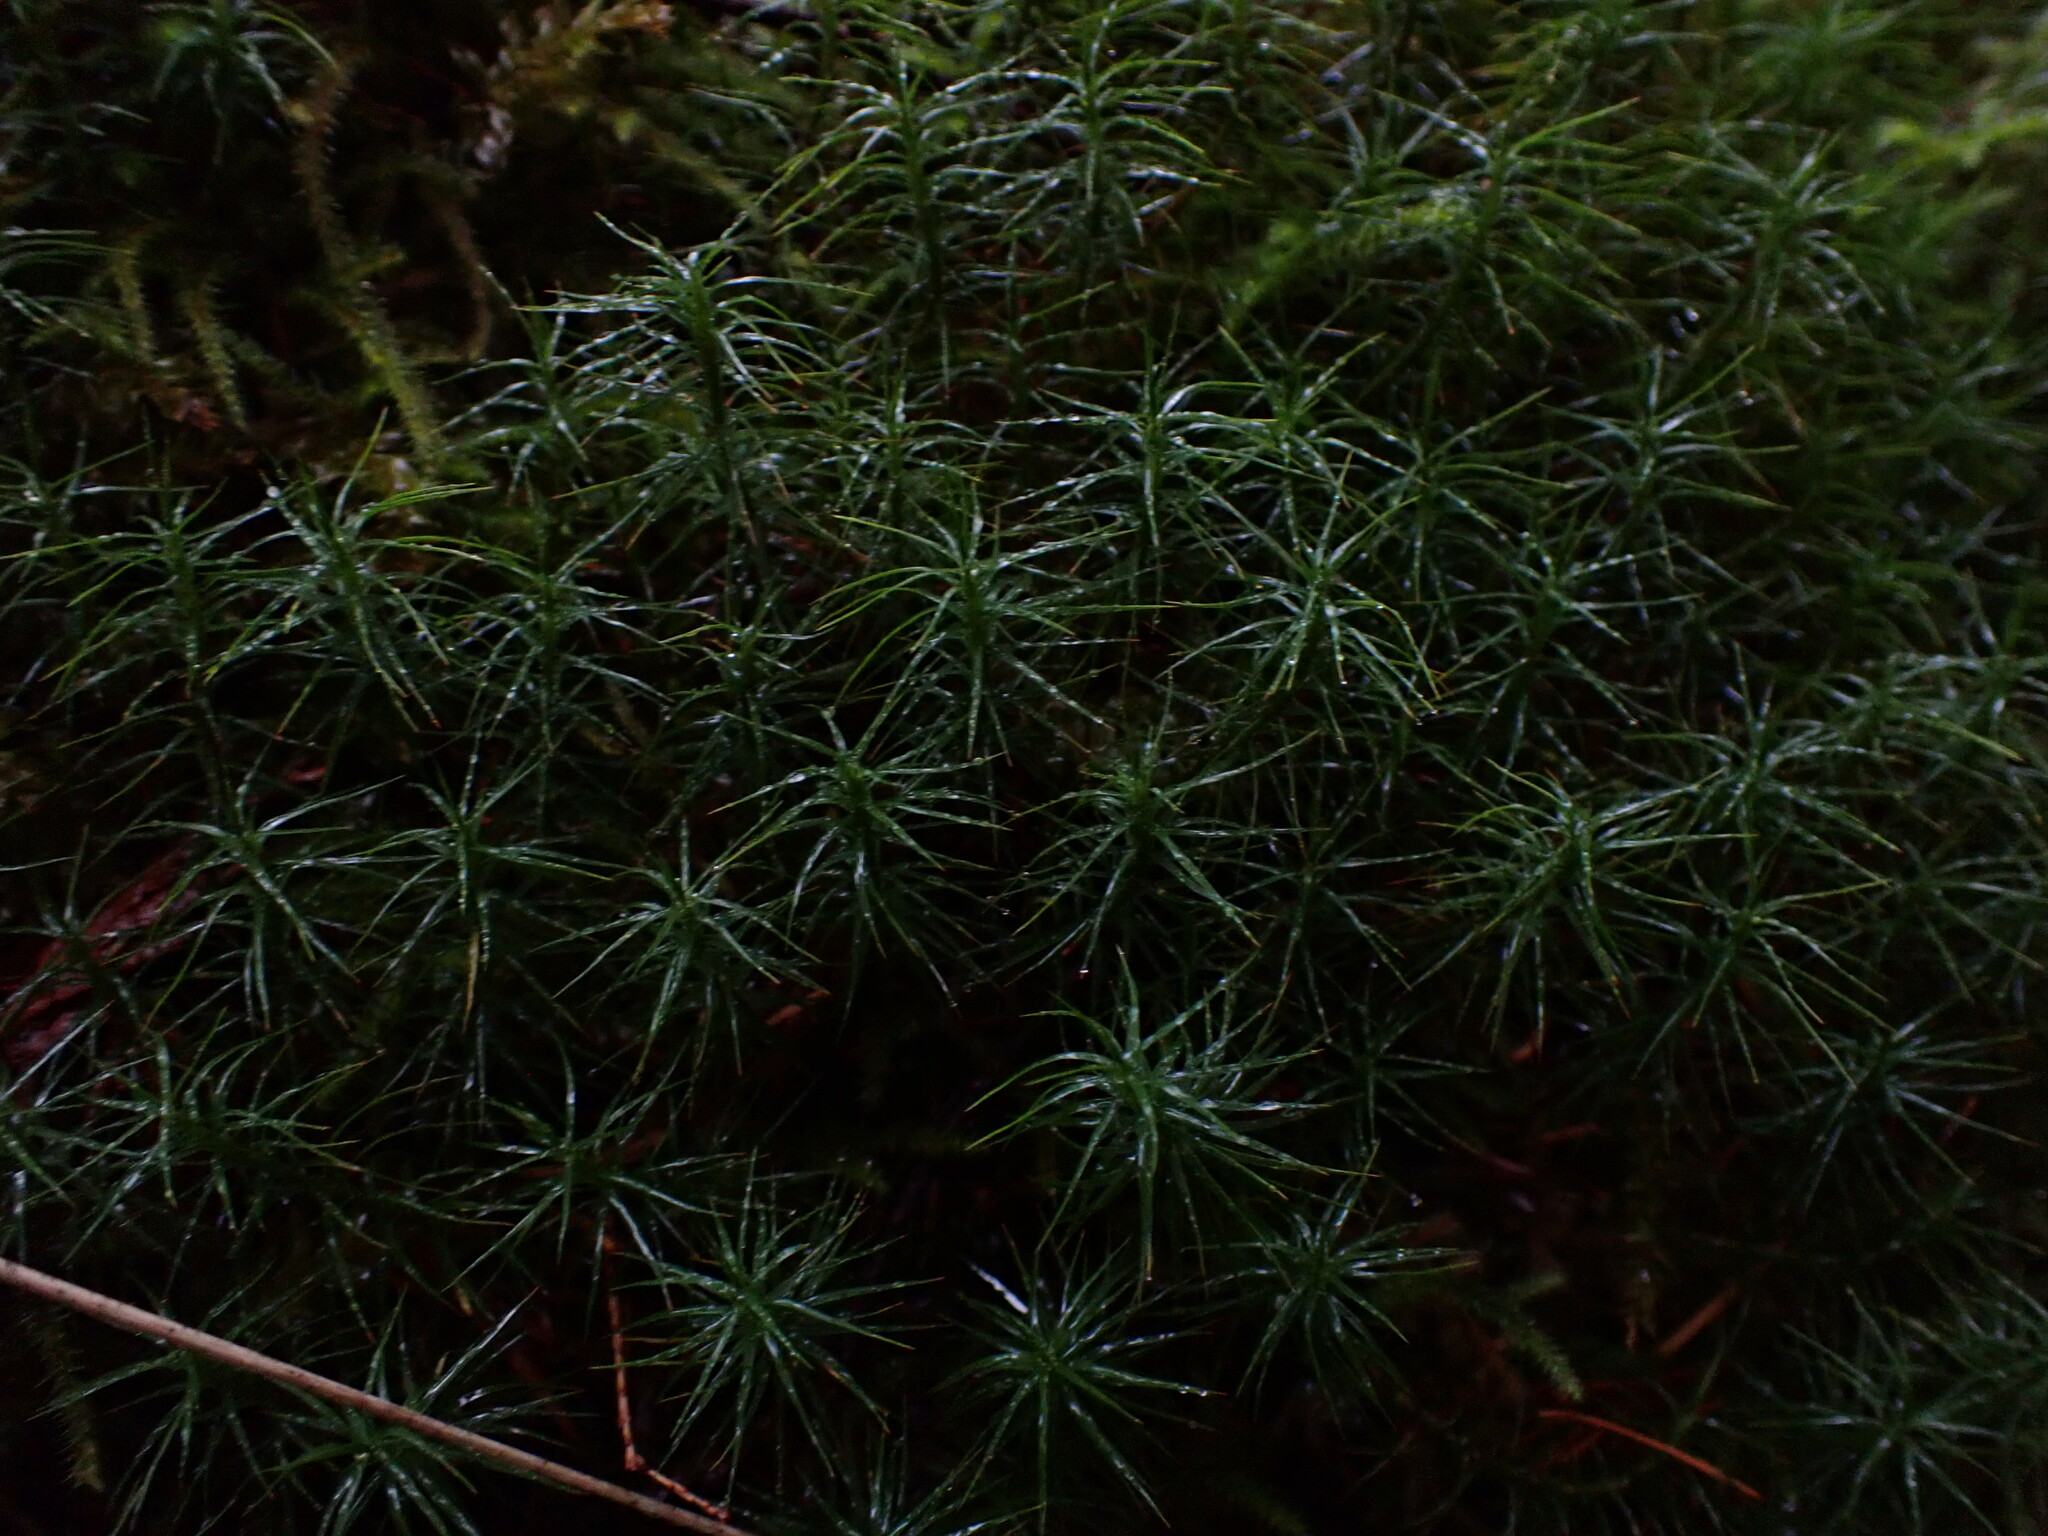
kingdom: Plantae
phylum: Bryophyta
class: Polytrichopsida
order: Polytrichales
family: Polytrichaceae
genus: Polytrichastrum
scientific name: Polytrichastrum alpinum
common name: Alpine haircap
